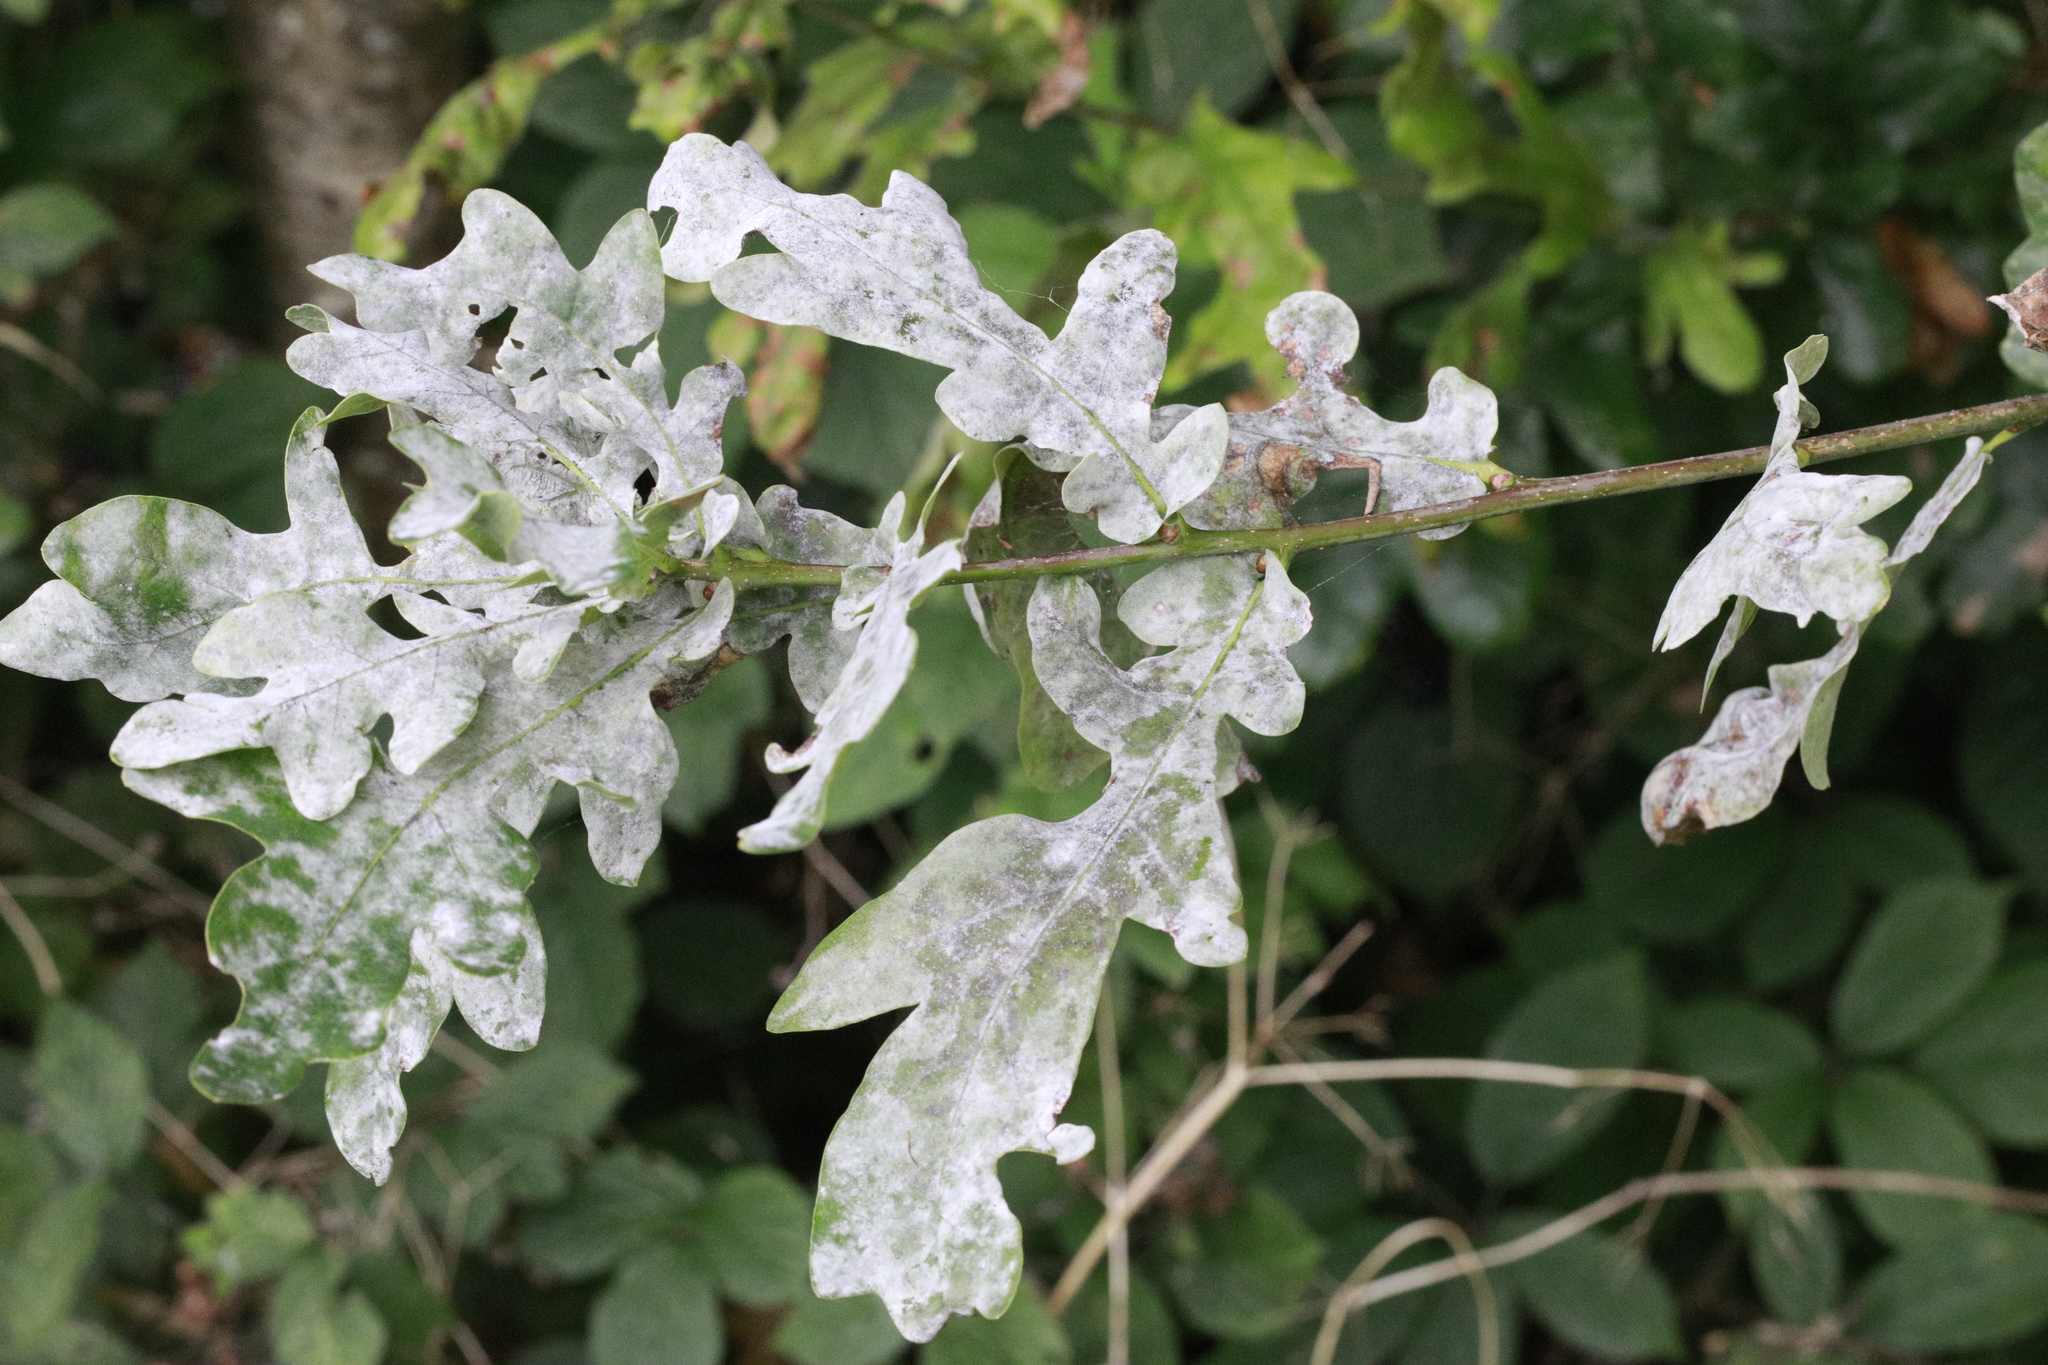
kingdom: Fungi
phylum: Ascomycota
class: Leotiomycetes
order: Helotiales
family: Erysiphaceae
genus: Erysiphe
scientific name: Erysiphe alphitoides
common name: Oak mildew
